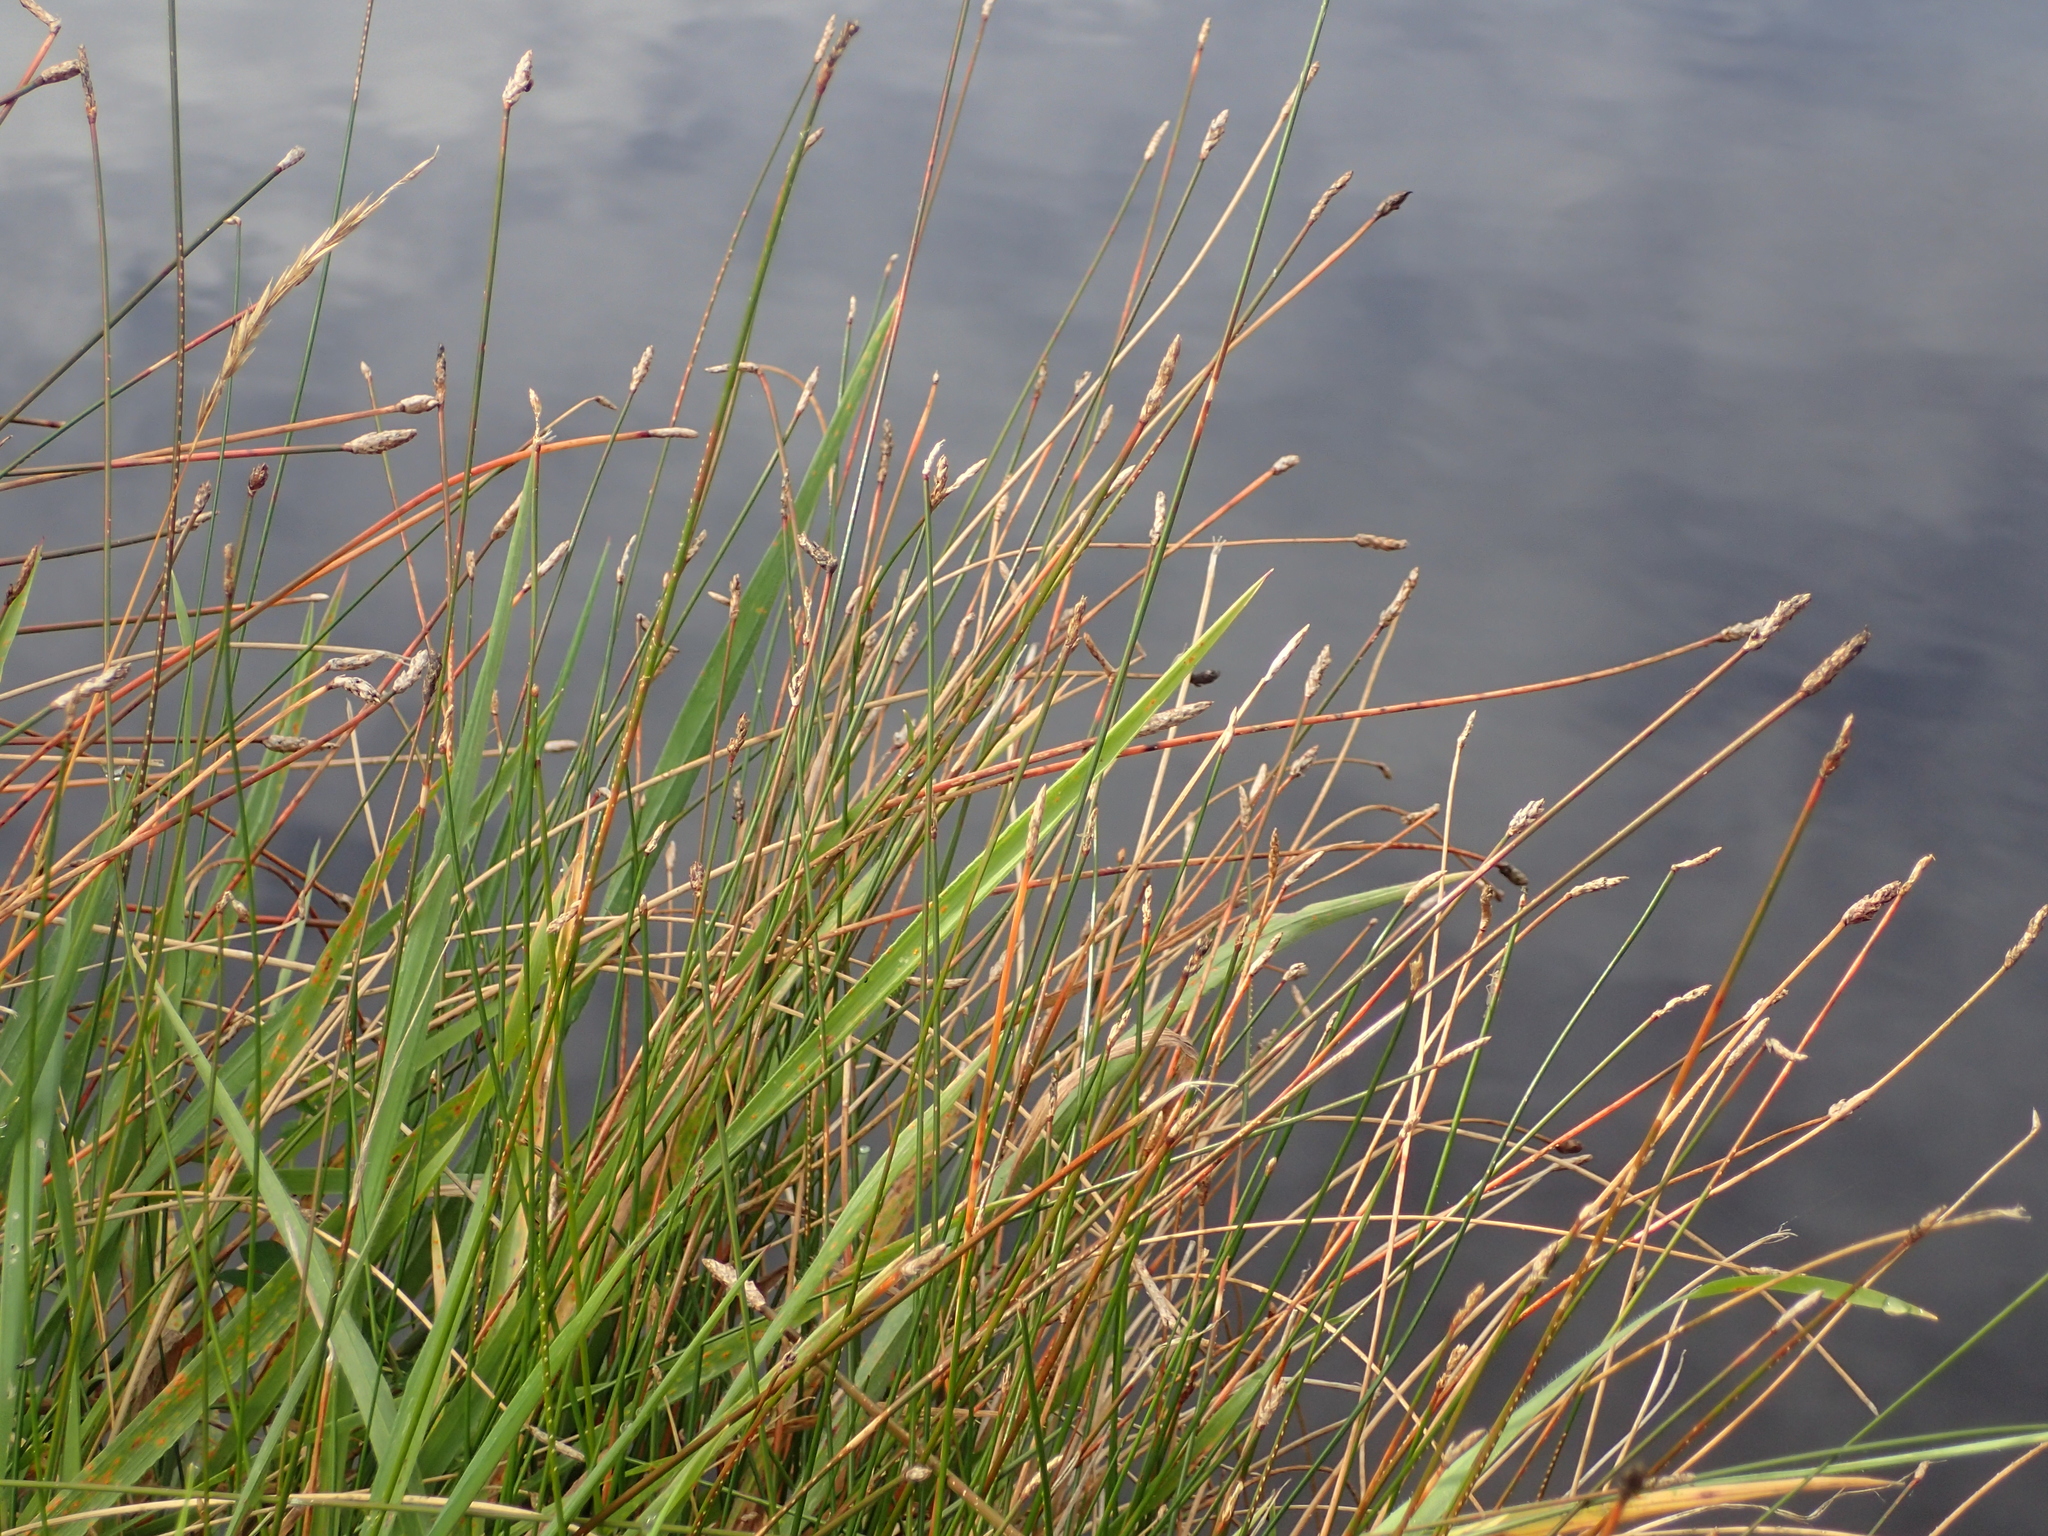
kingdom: Plantae
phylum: Tracheophyta
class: Liliopsida
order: Poales
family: Cyperaceae
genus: Eleocharis
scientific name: Eleocharis acuta
